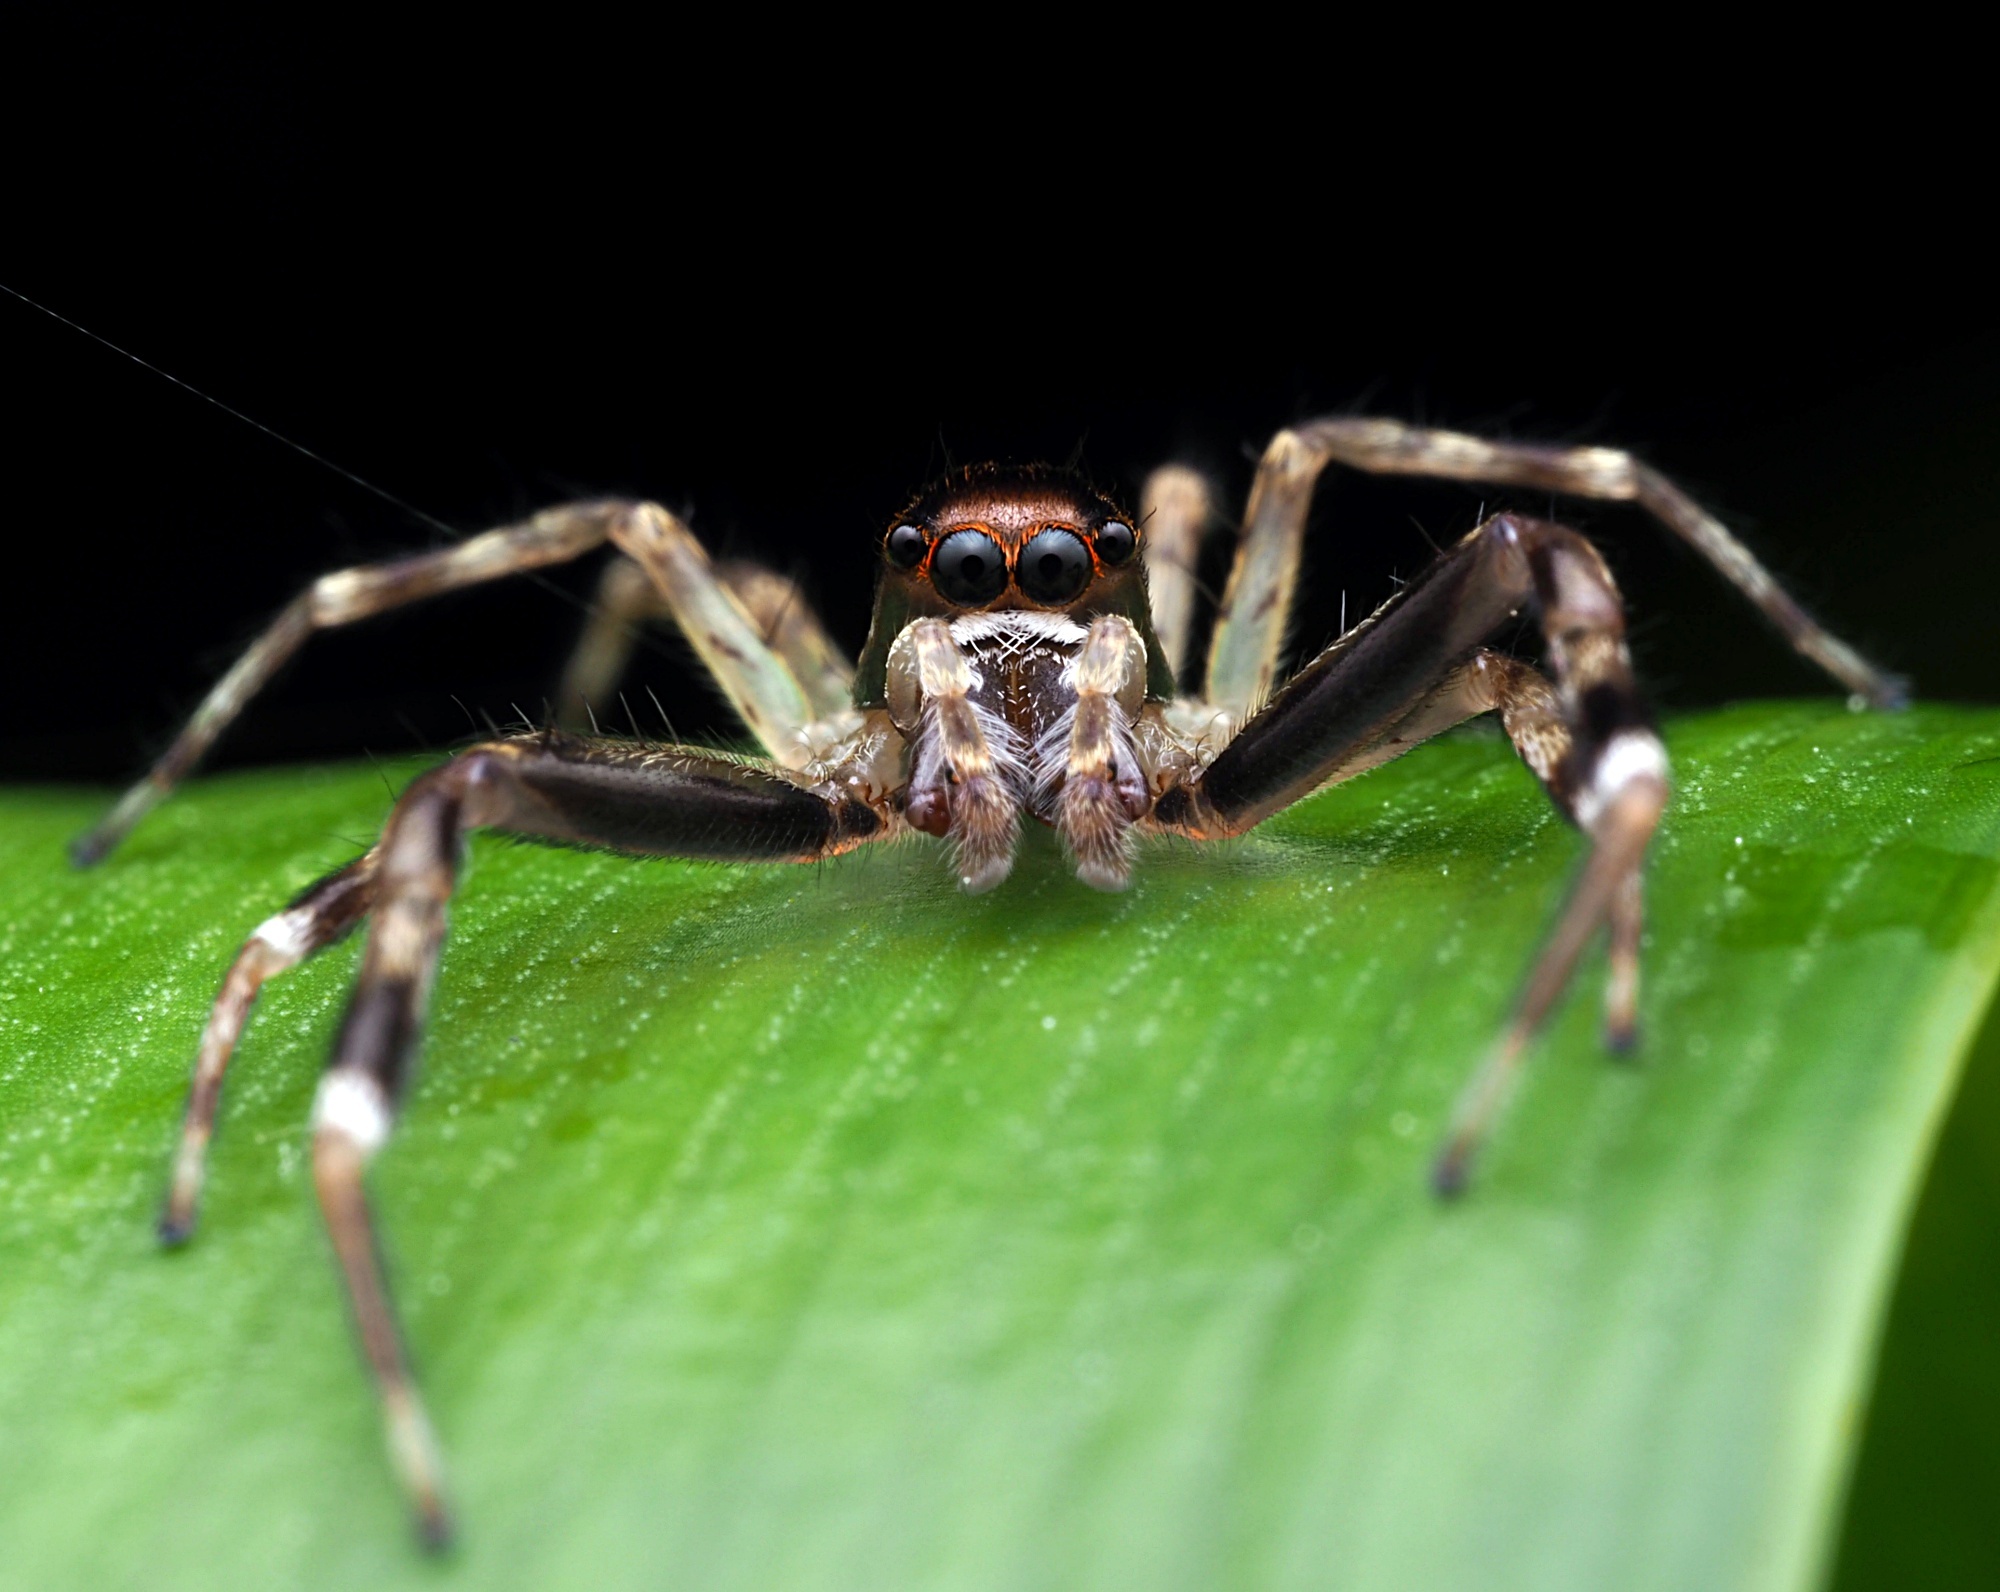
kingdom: Animalia
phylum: Arthropoda
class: Arachnida
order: Araneae
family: Salticidae
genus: Helpis
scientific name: Helpis minitabunda
